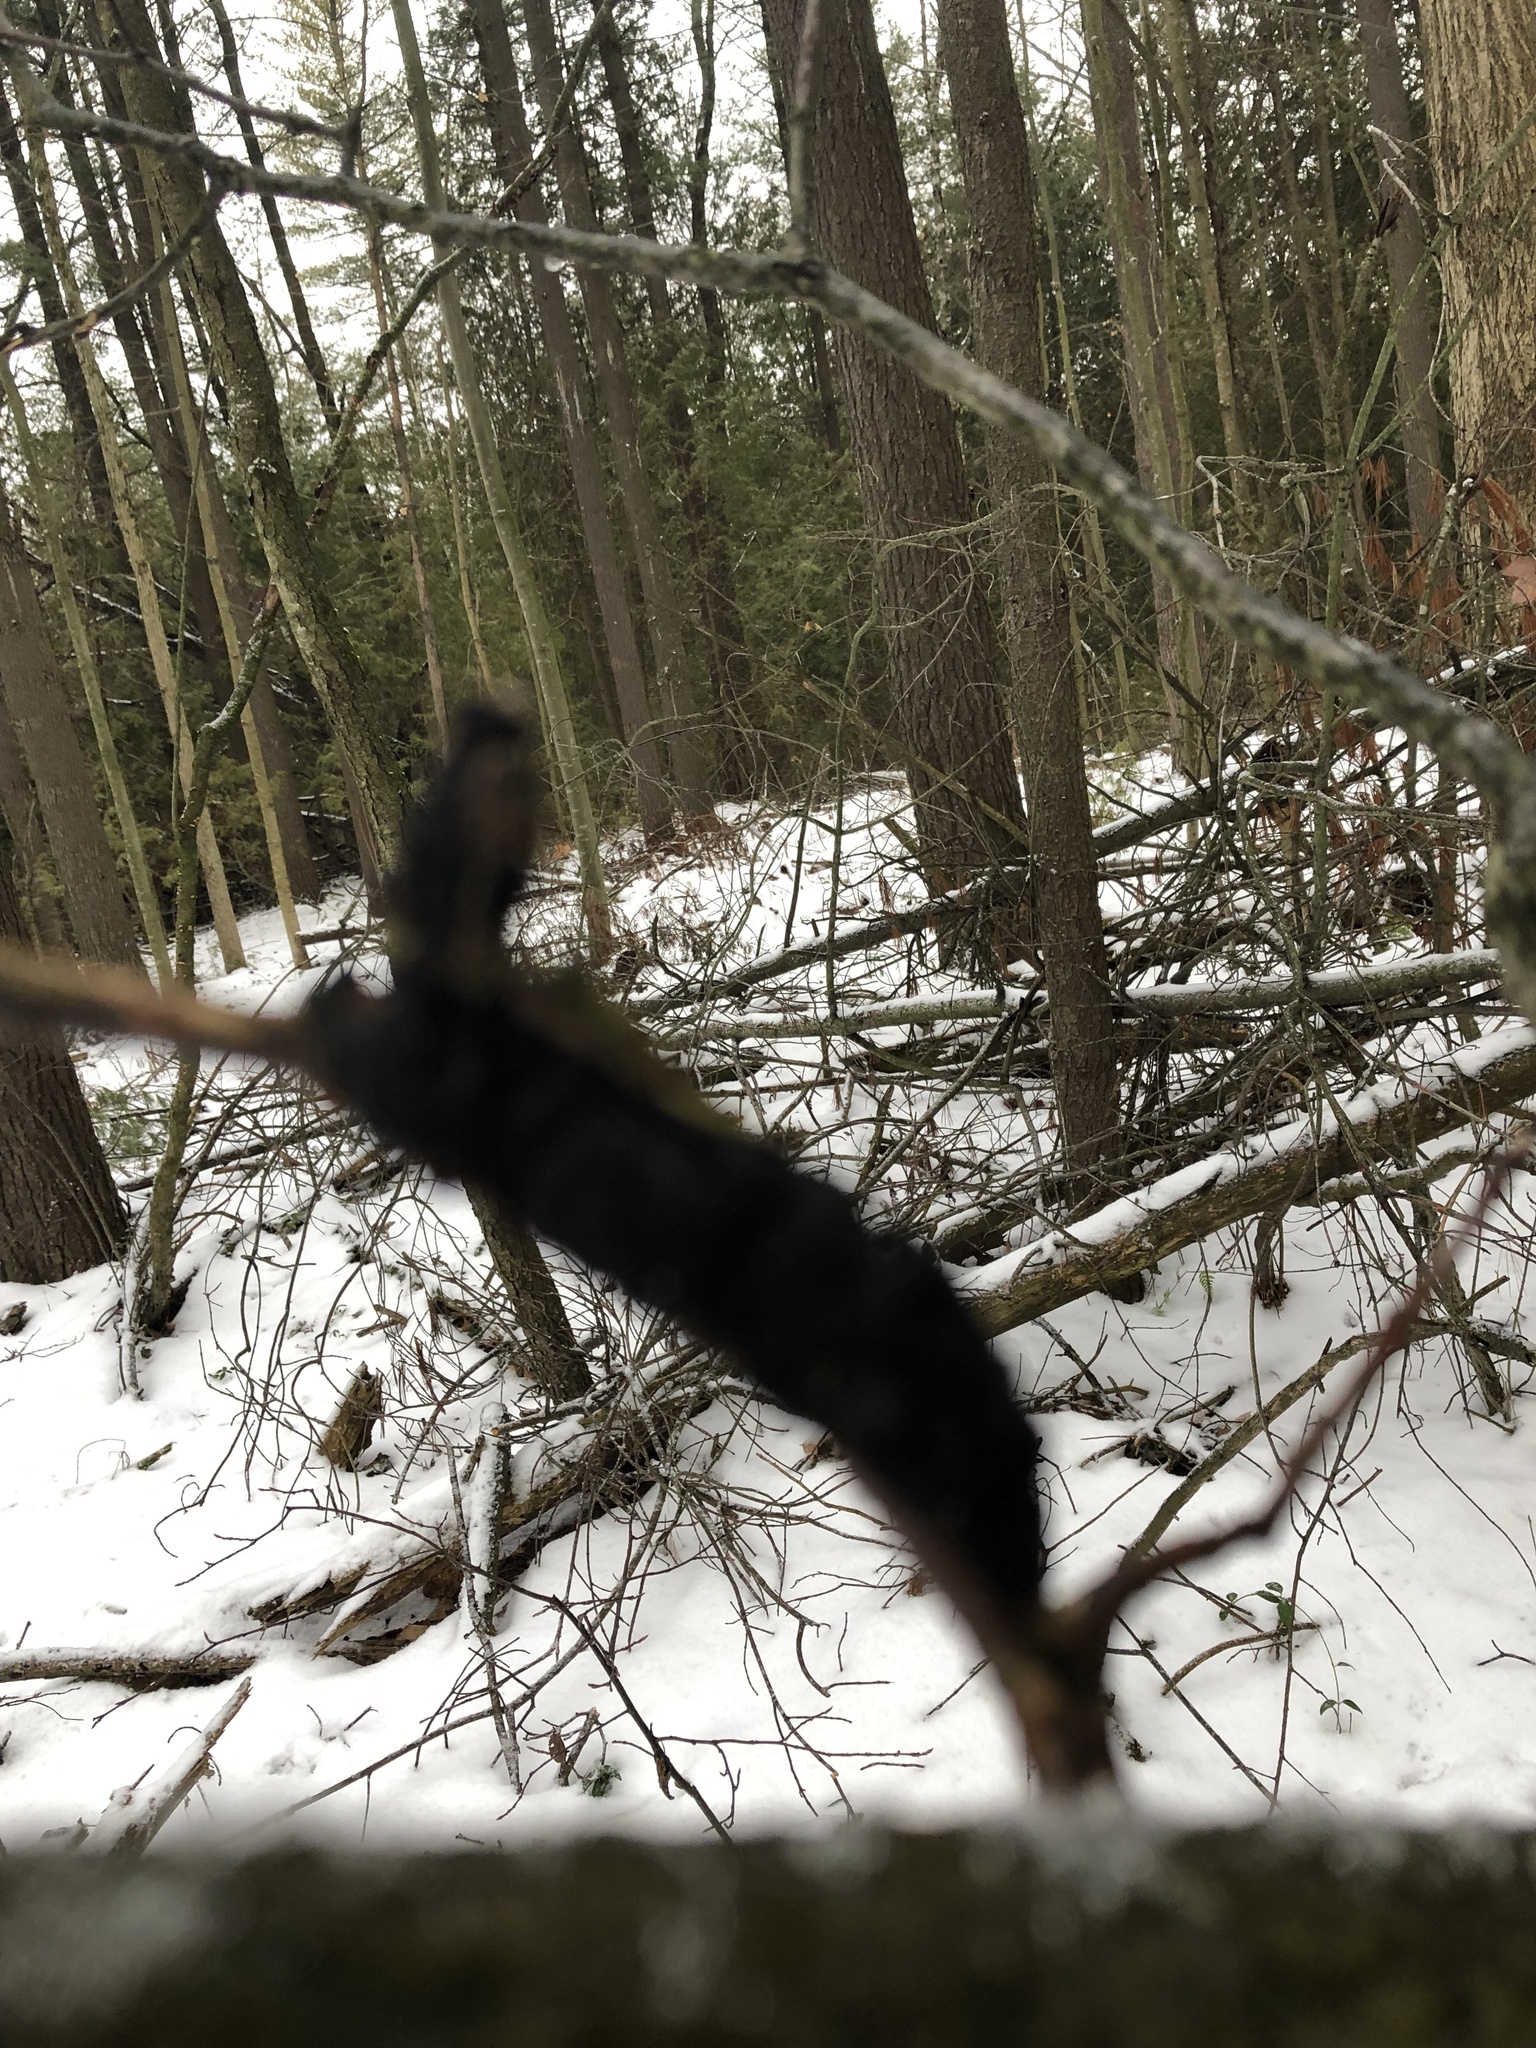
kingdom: Fungi
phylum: Ascomycota
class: Dothideomycetes
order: Venturiales
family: Venturiaceae
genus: Apiosporina
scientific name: Apiosporina morbosa
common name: Black knot
